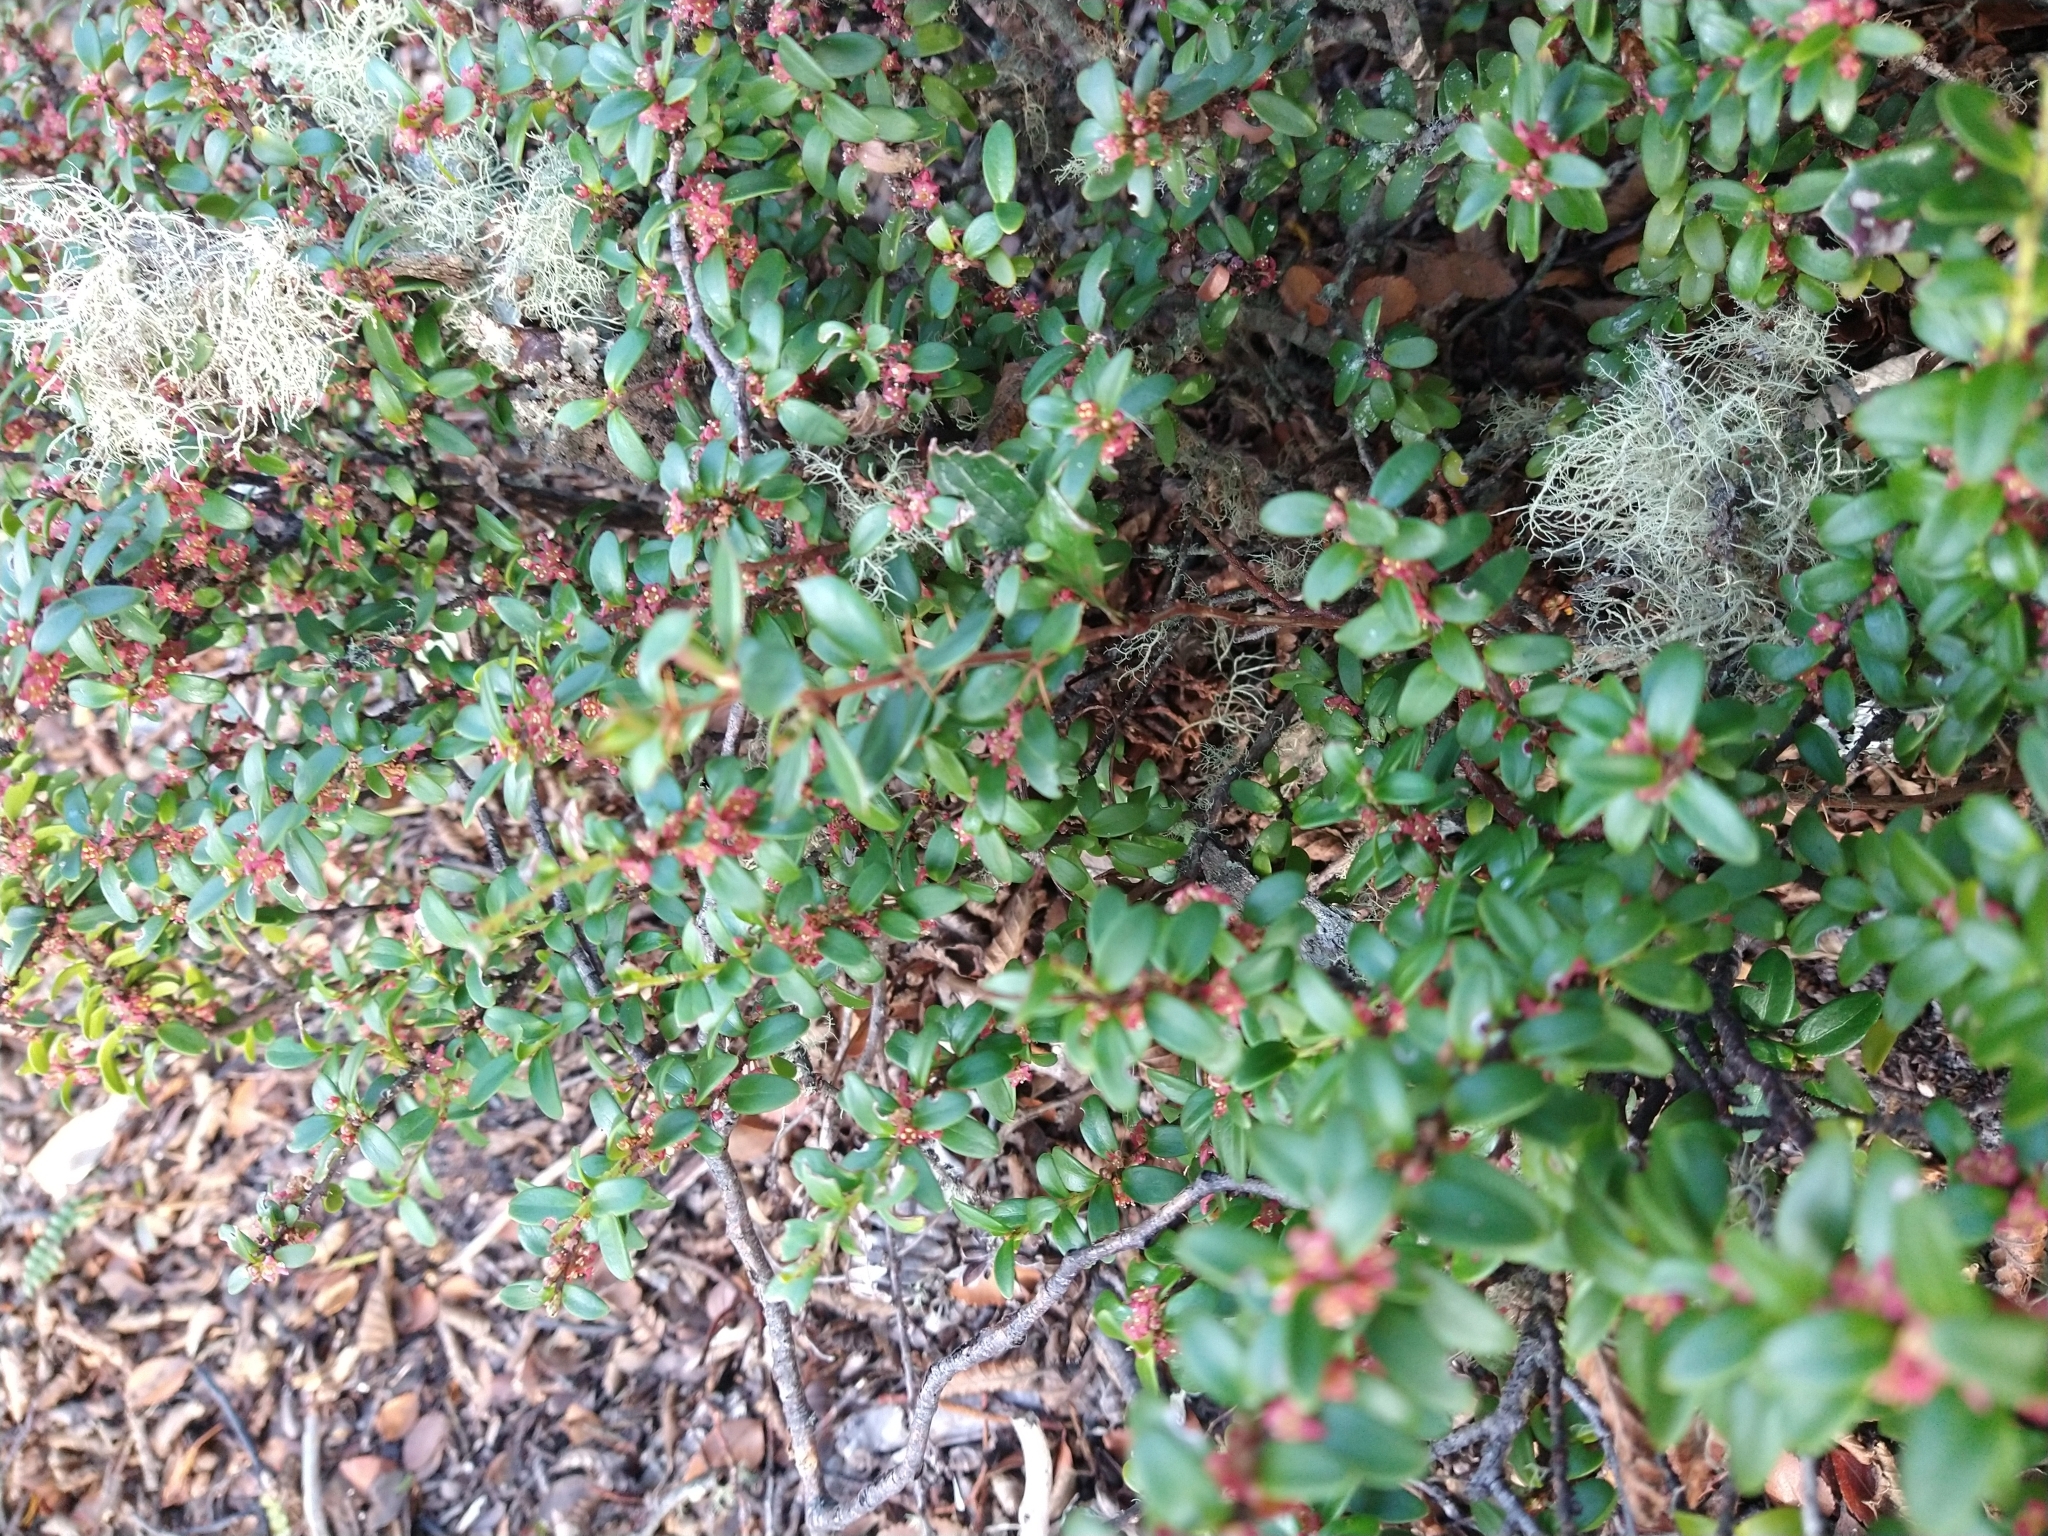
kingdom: Plantae
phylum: Tracheophyta
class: Magnoliopsida
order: Celastrales
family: Celastraceae
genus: Maytenus
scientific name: Maytenus disticha
